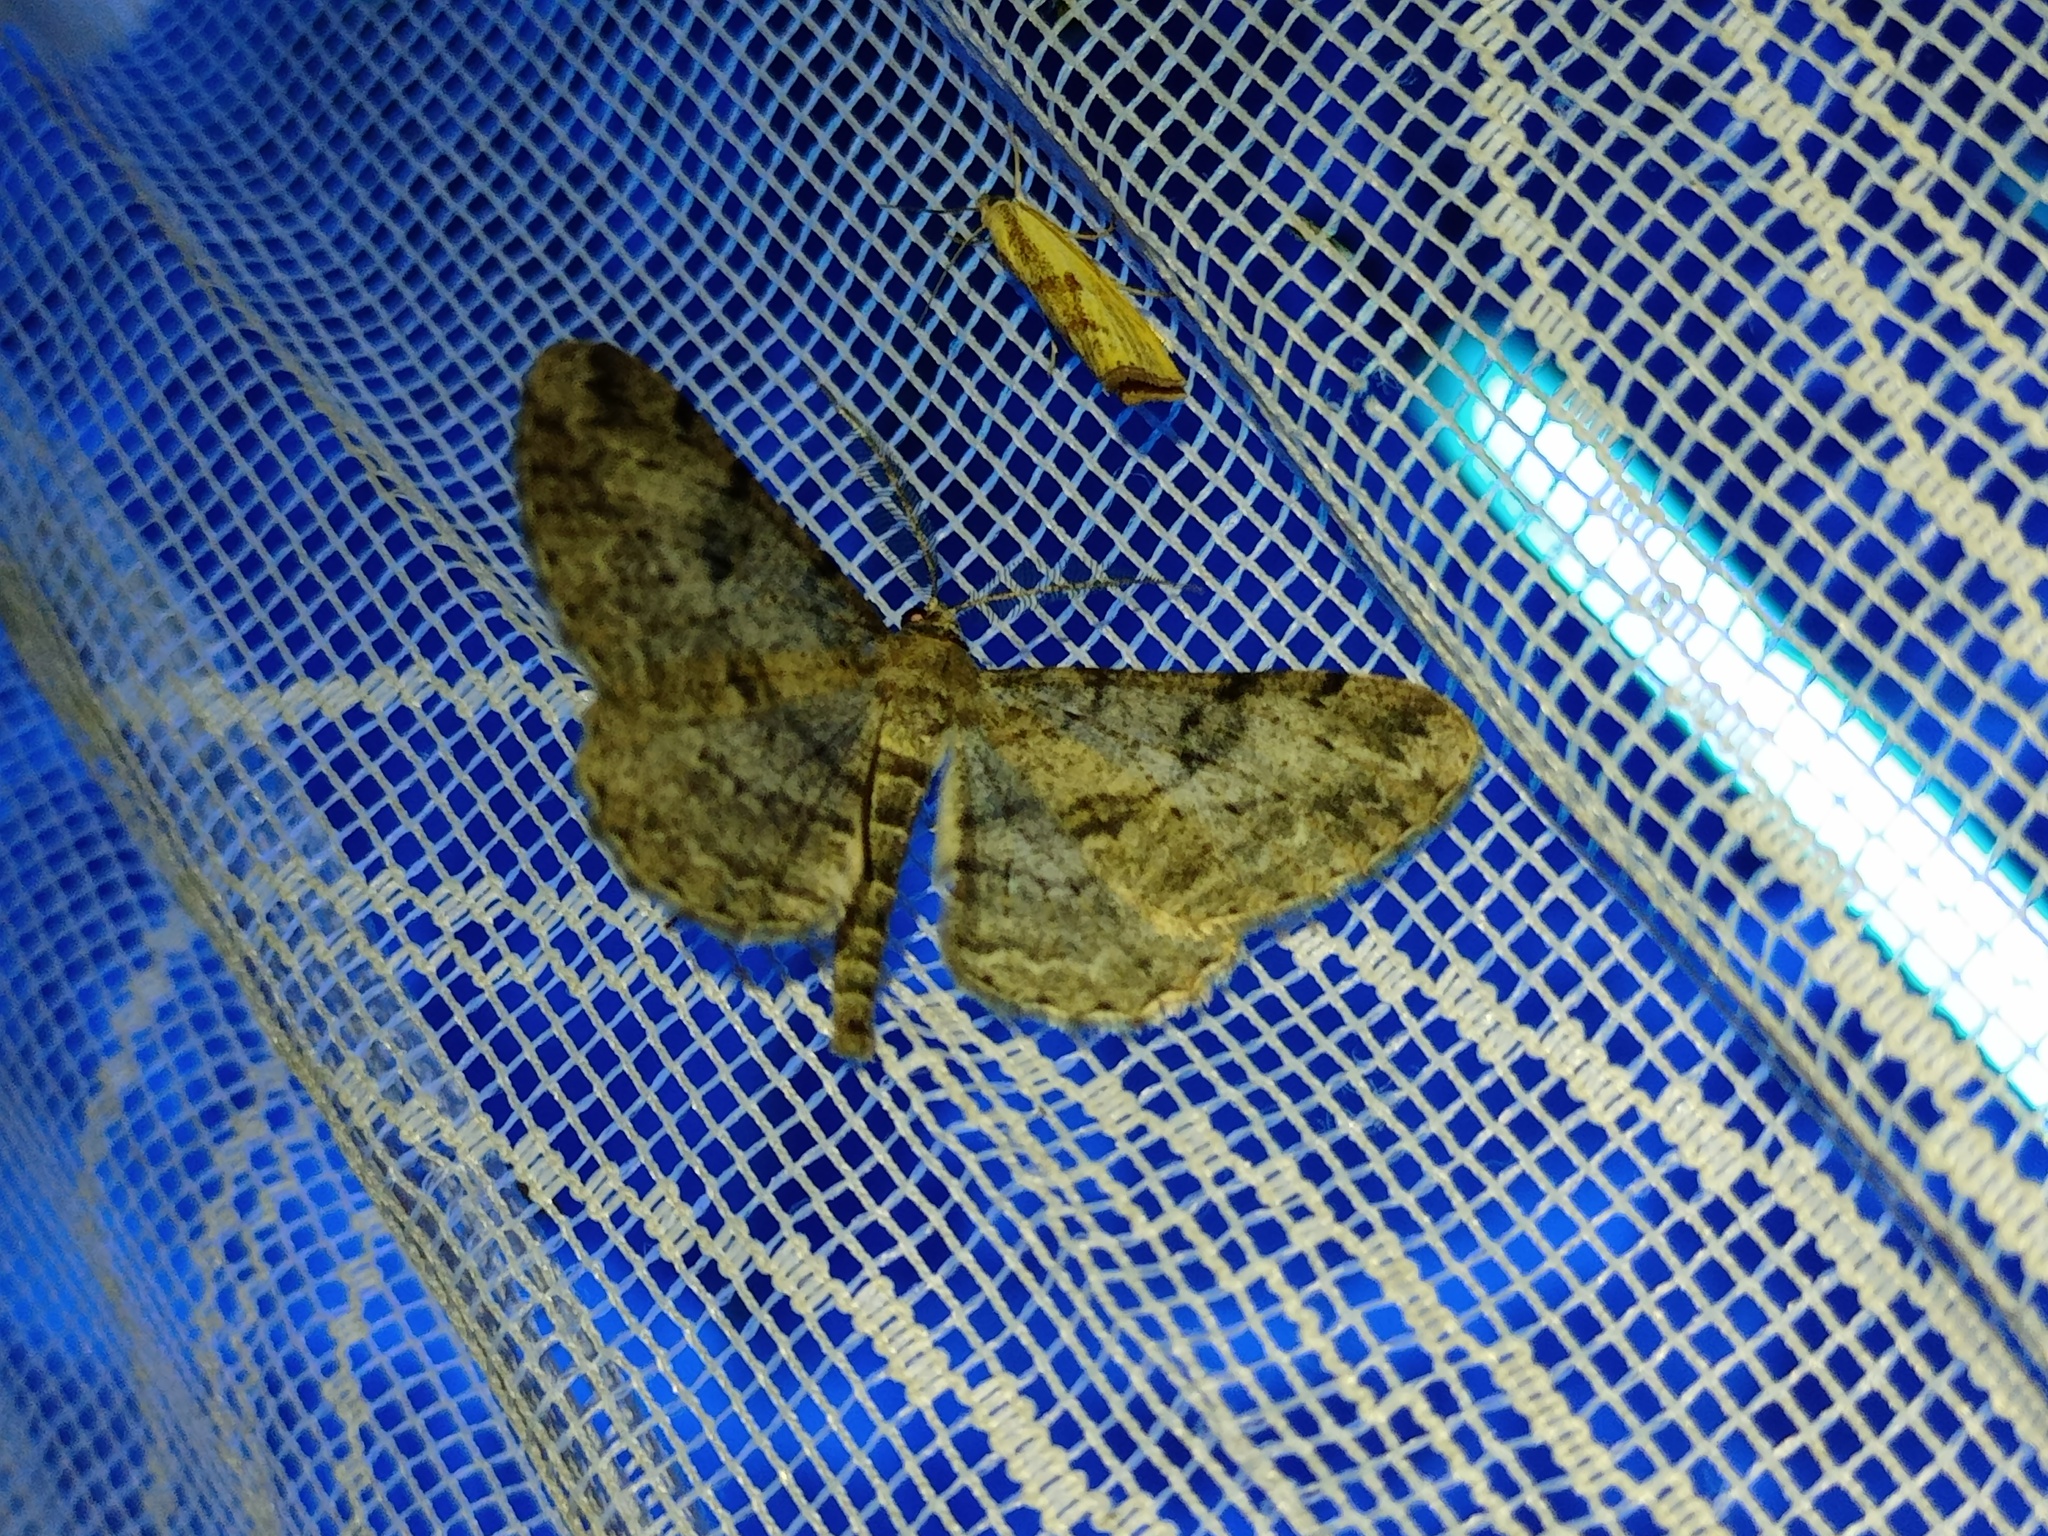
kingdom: Animalia
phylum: Arthropoda
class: Insecta
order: Lepidoptera
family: Geometridae
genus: Peribatodes
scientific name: Peribatodes rhomboidaria
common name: Willow beauty
